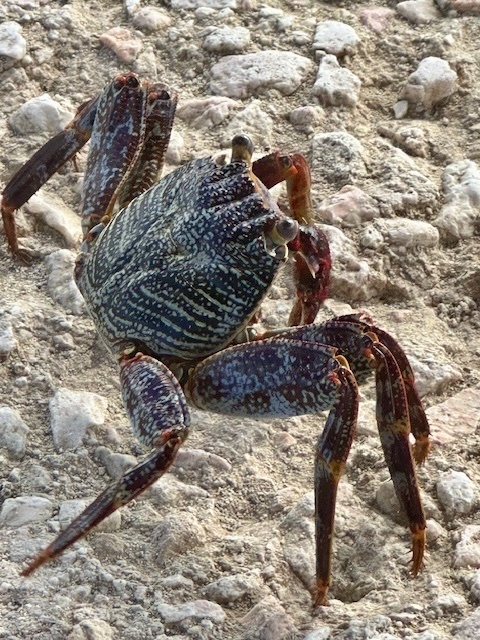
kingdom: Animalia
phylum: Arthropoda
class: Malacostraca
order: Decapoda
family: Grapsidae
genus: Grapsus
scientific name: Grapsus grapsus
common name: Sally lightfoot
